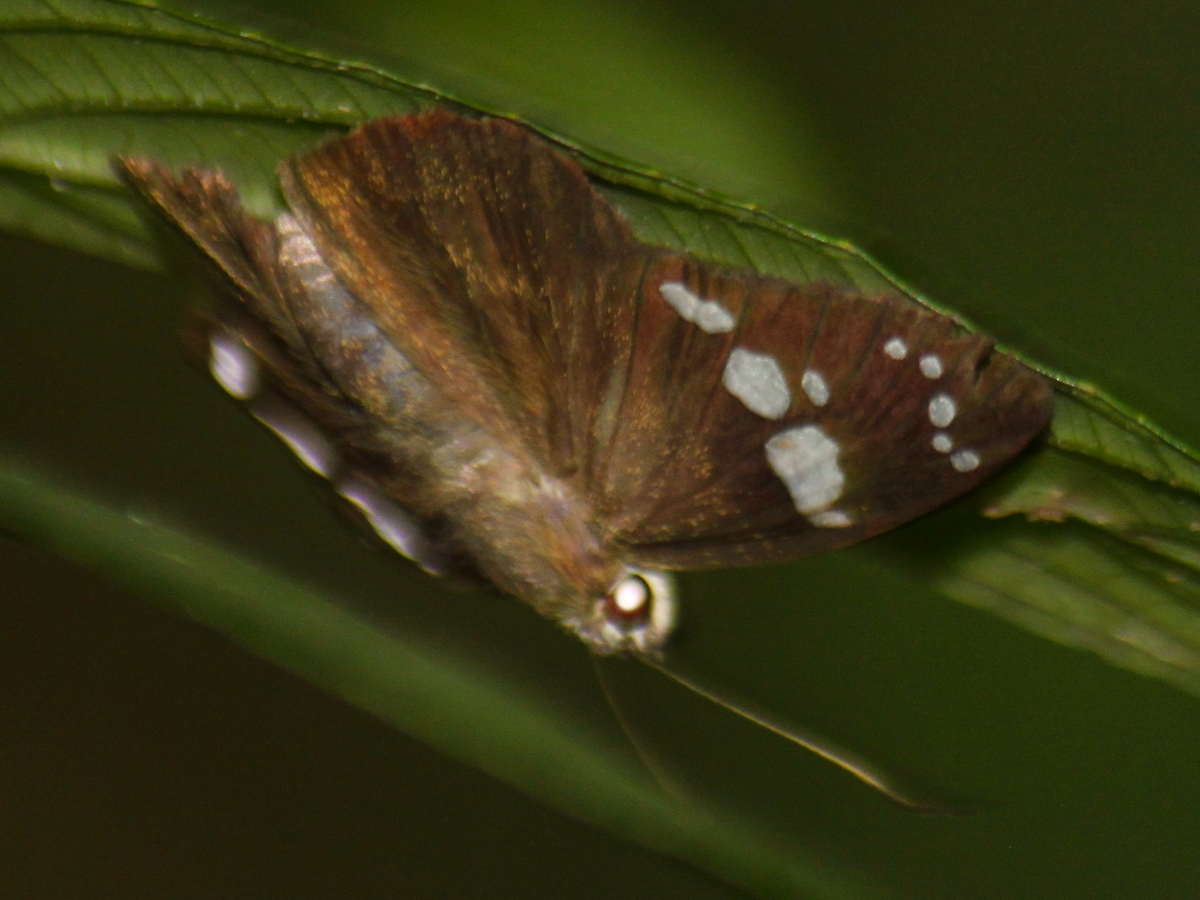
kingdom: Animalia
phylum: Arthropoda
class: Insecta
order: Lepidoptera
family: Hesperiidae
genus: Chamunda
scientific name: Chamunda chamunda
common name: Crescent spotted flat
